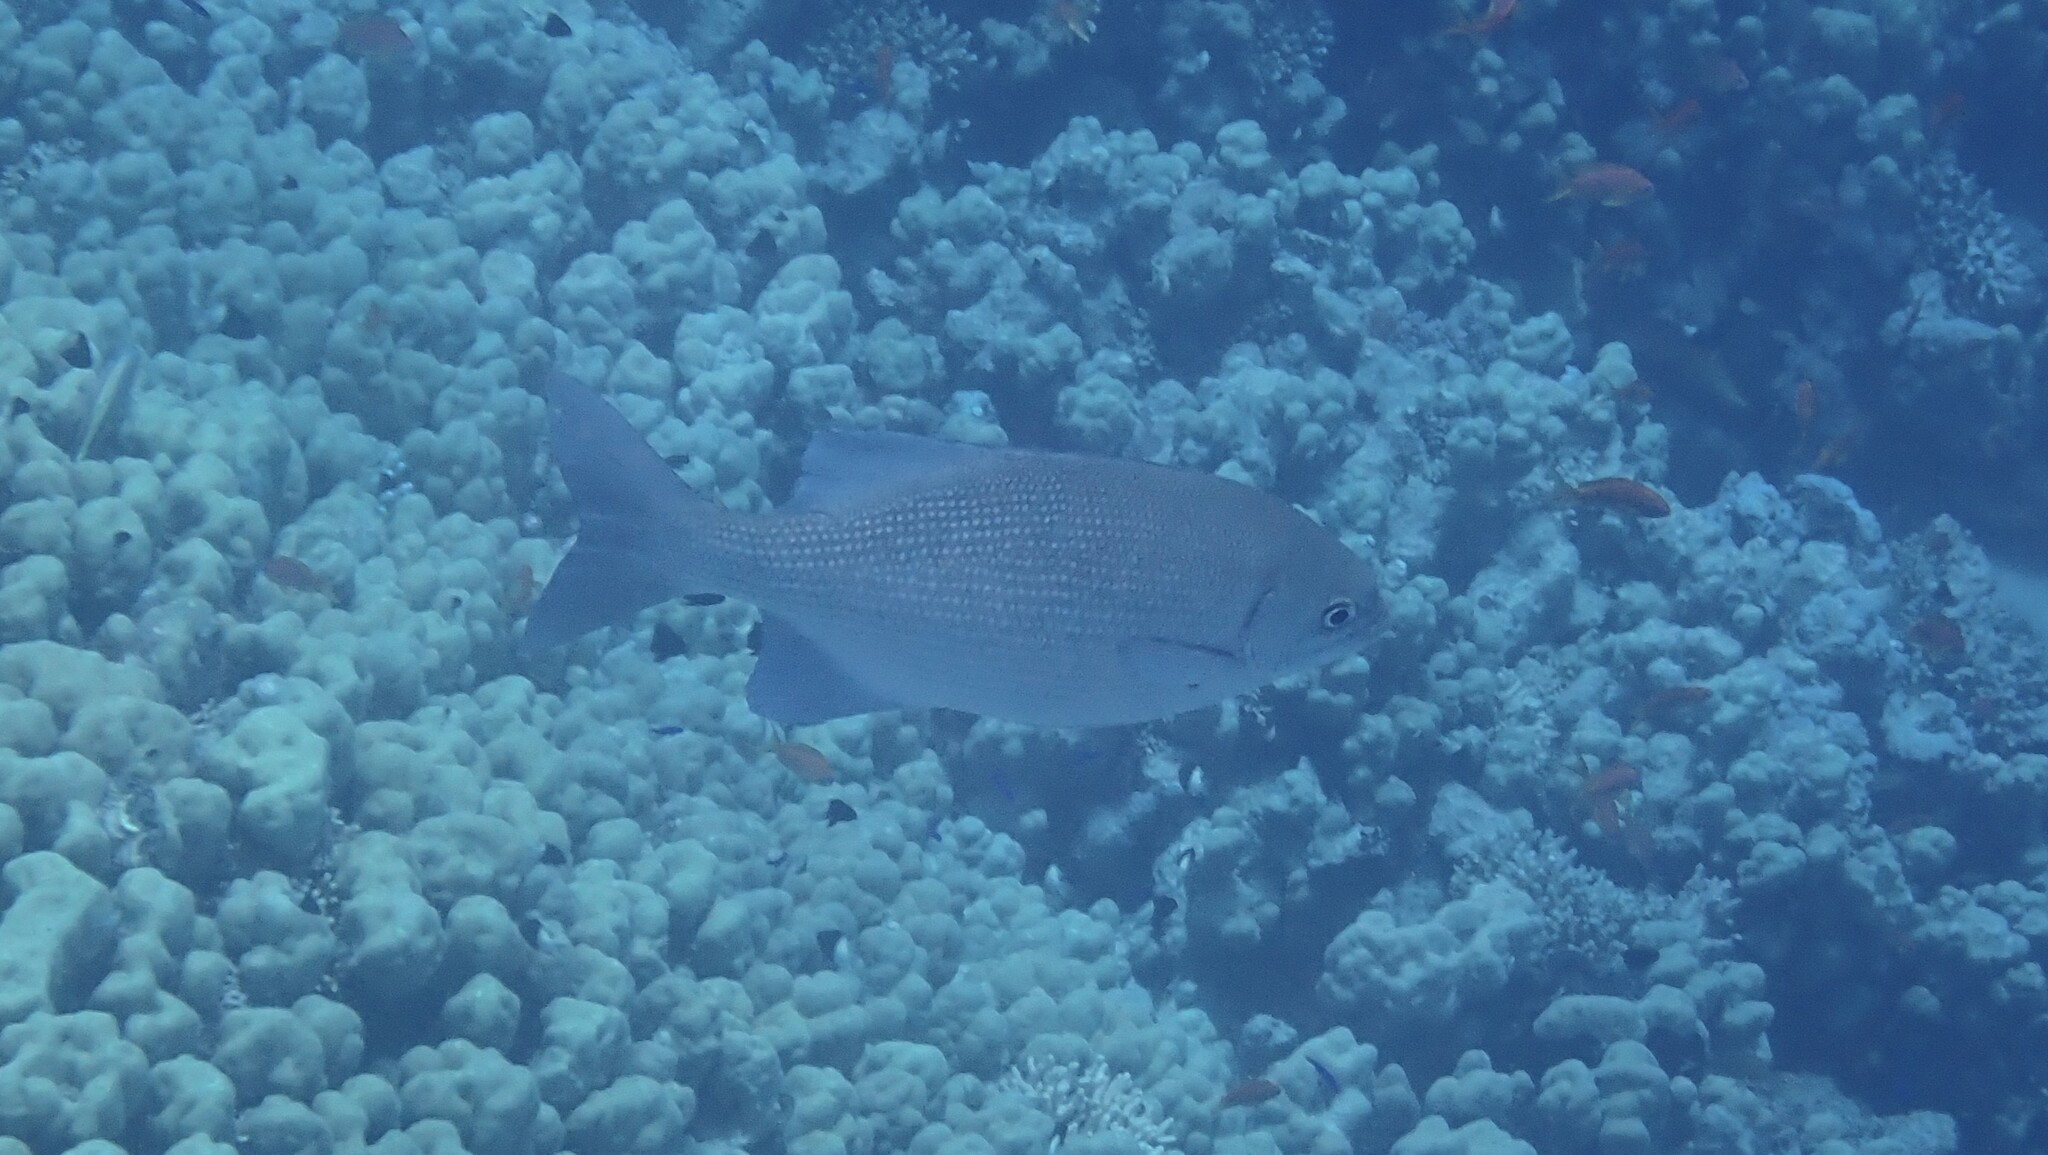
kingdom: Animalia
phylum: Chordata
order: Perciformes
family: Kyphosidae
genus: Kyphosus
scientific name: Kyphosus cinerascens
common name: Topsail drummer
